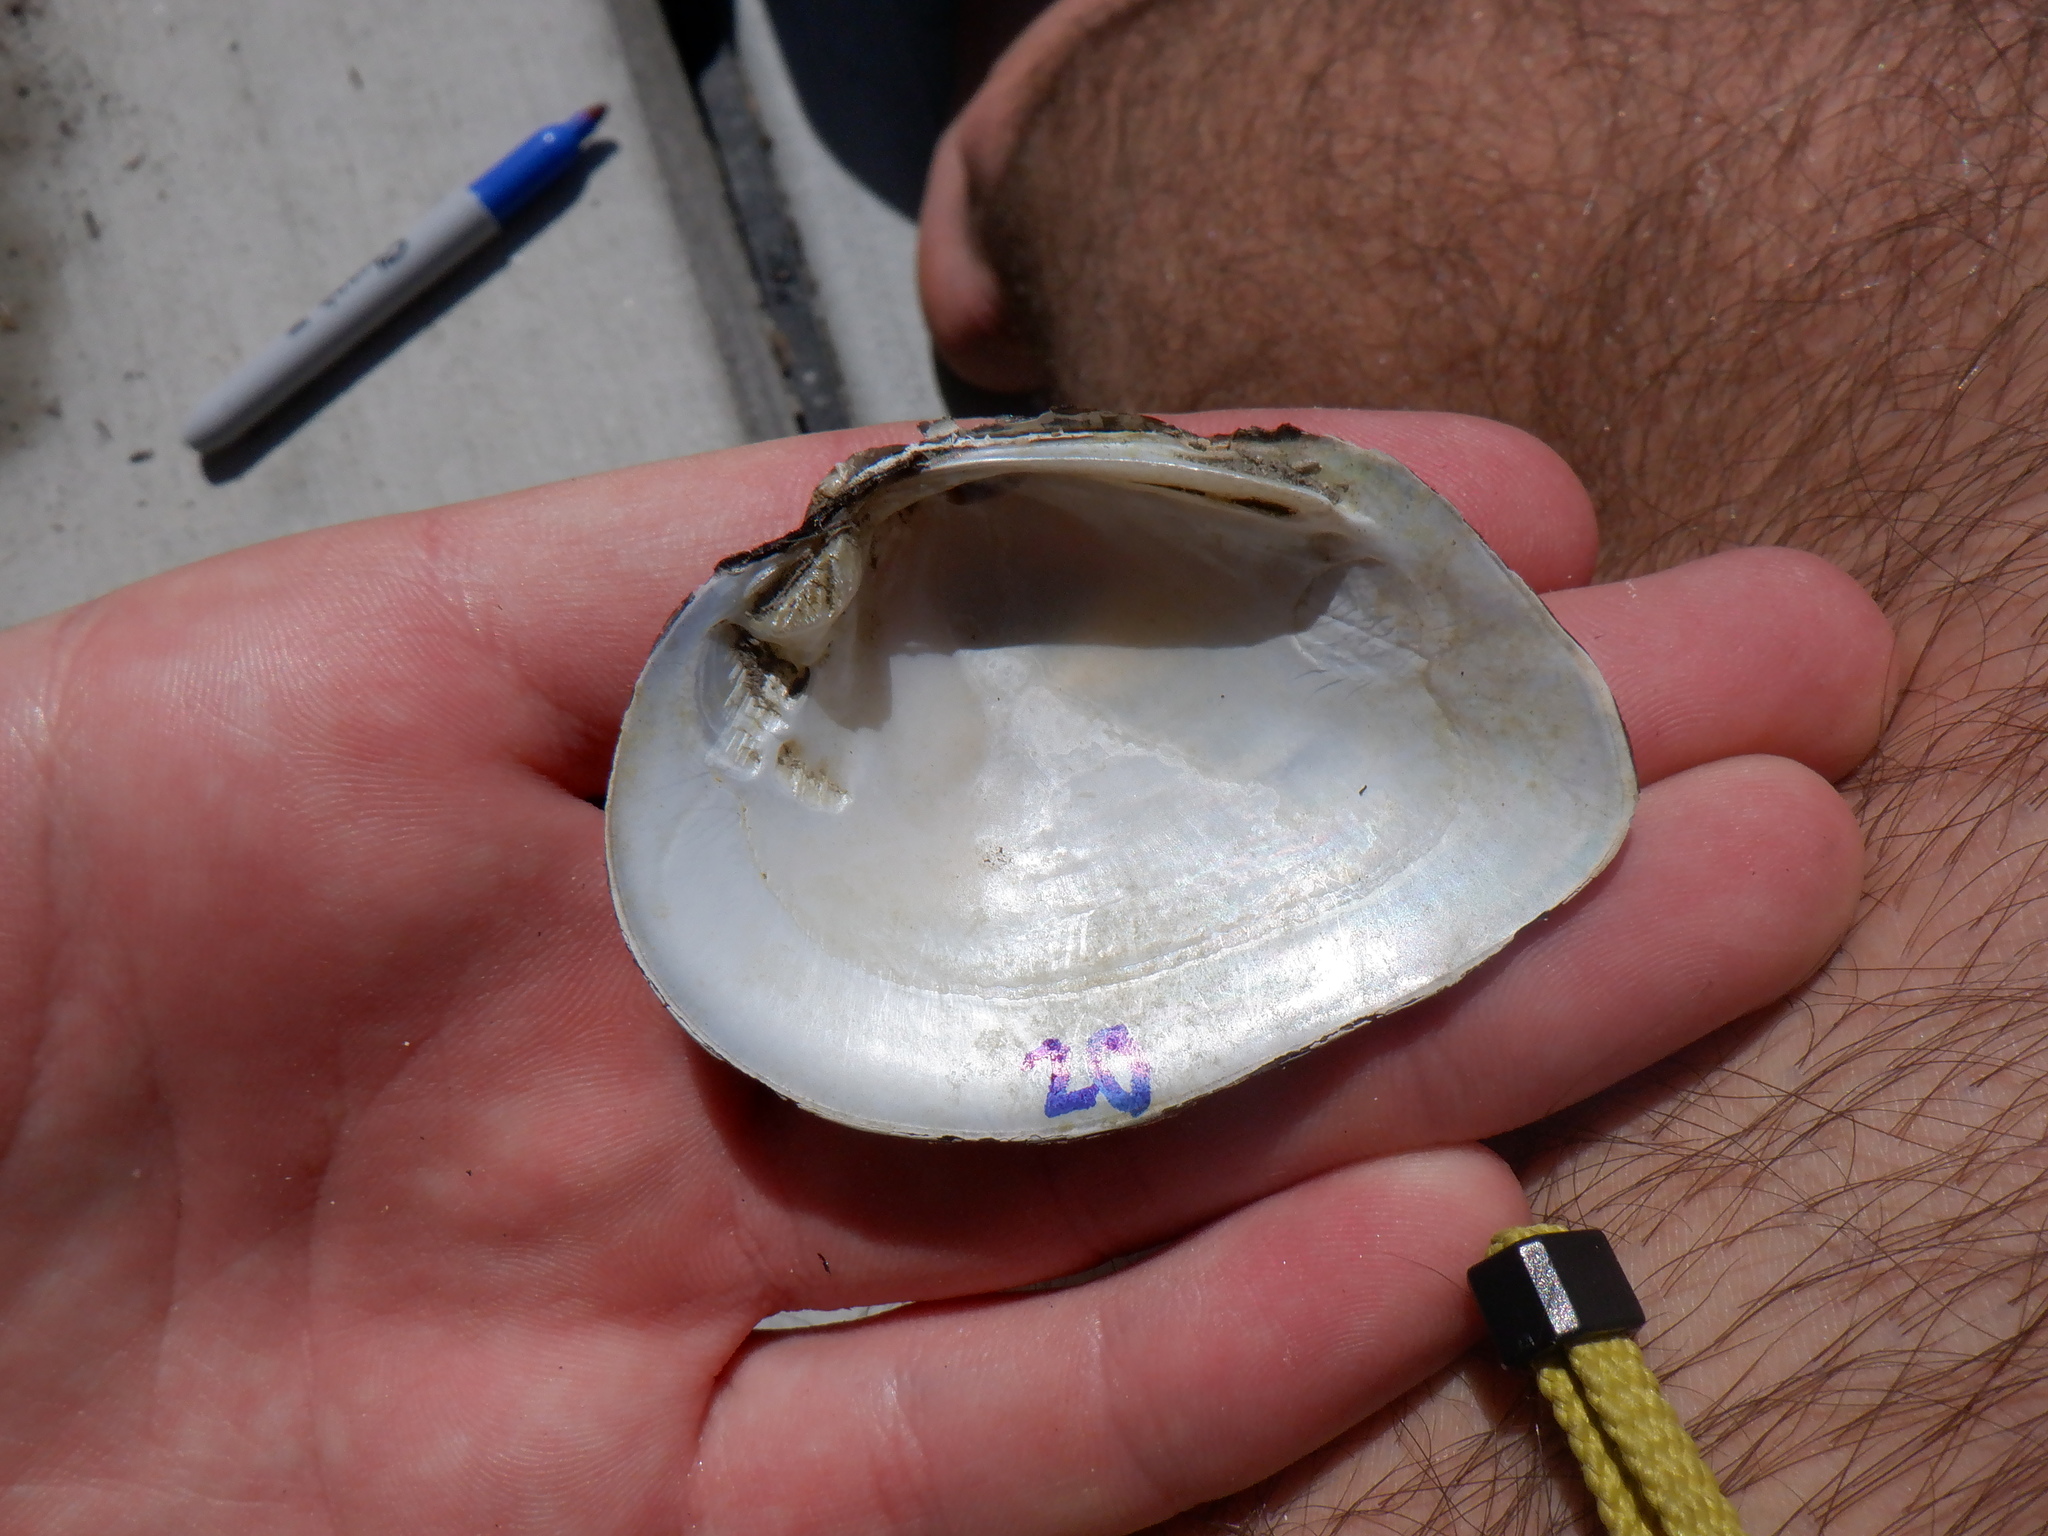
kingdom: Animalia
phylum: Mollusca
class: Bivalvia
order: Unionida
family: Unionidae
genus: Fusconaia
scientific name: Fusconaia flava
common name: Wabash pigtoe
